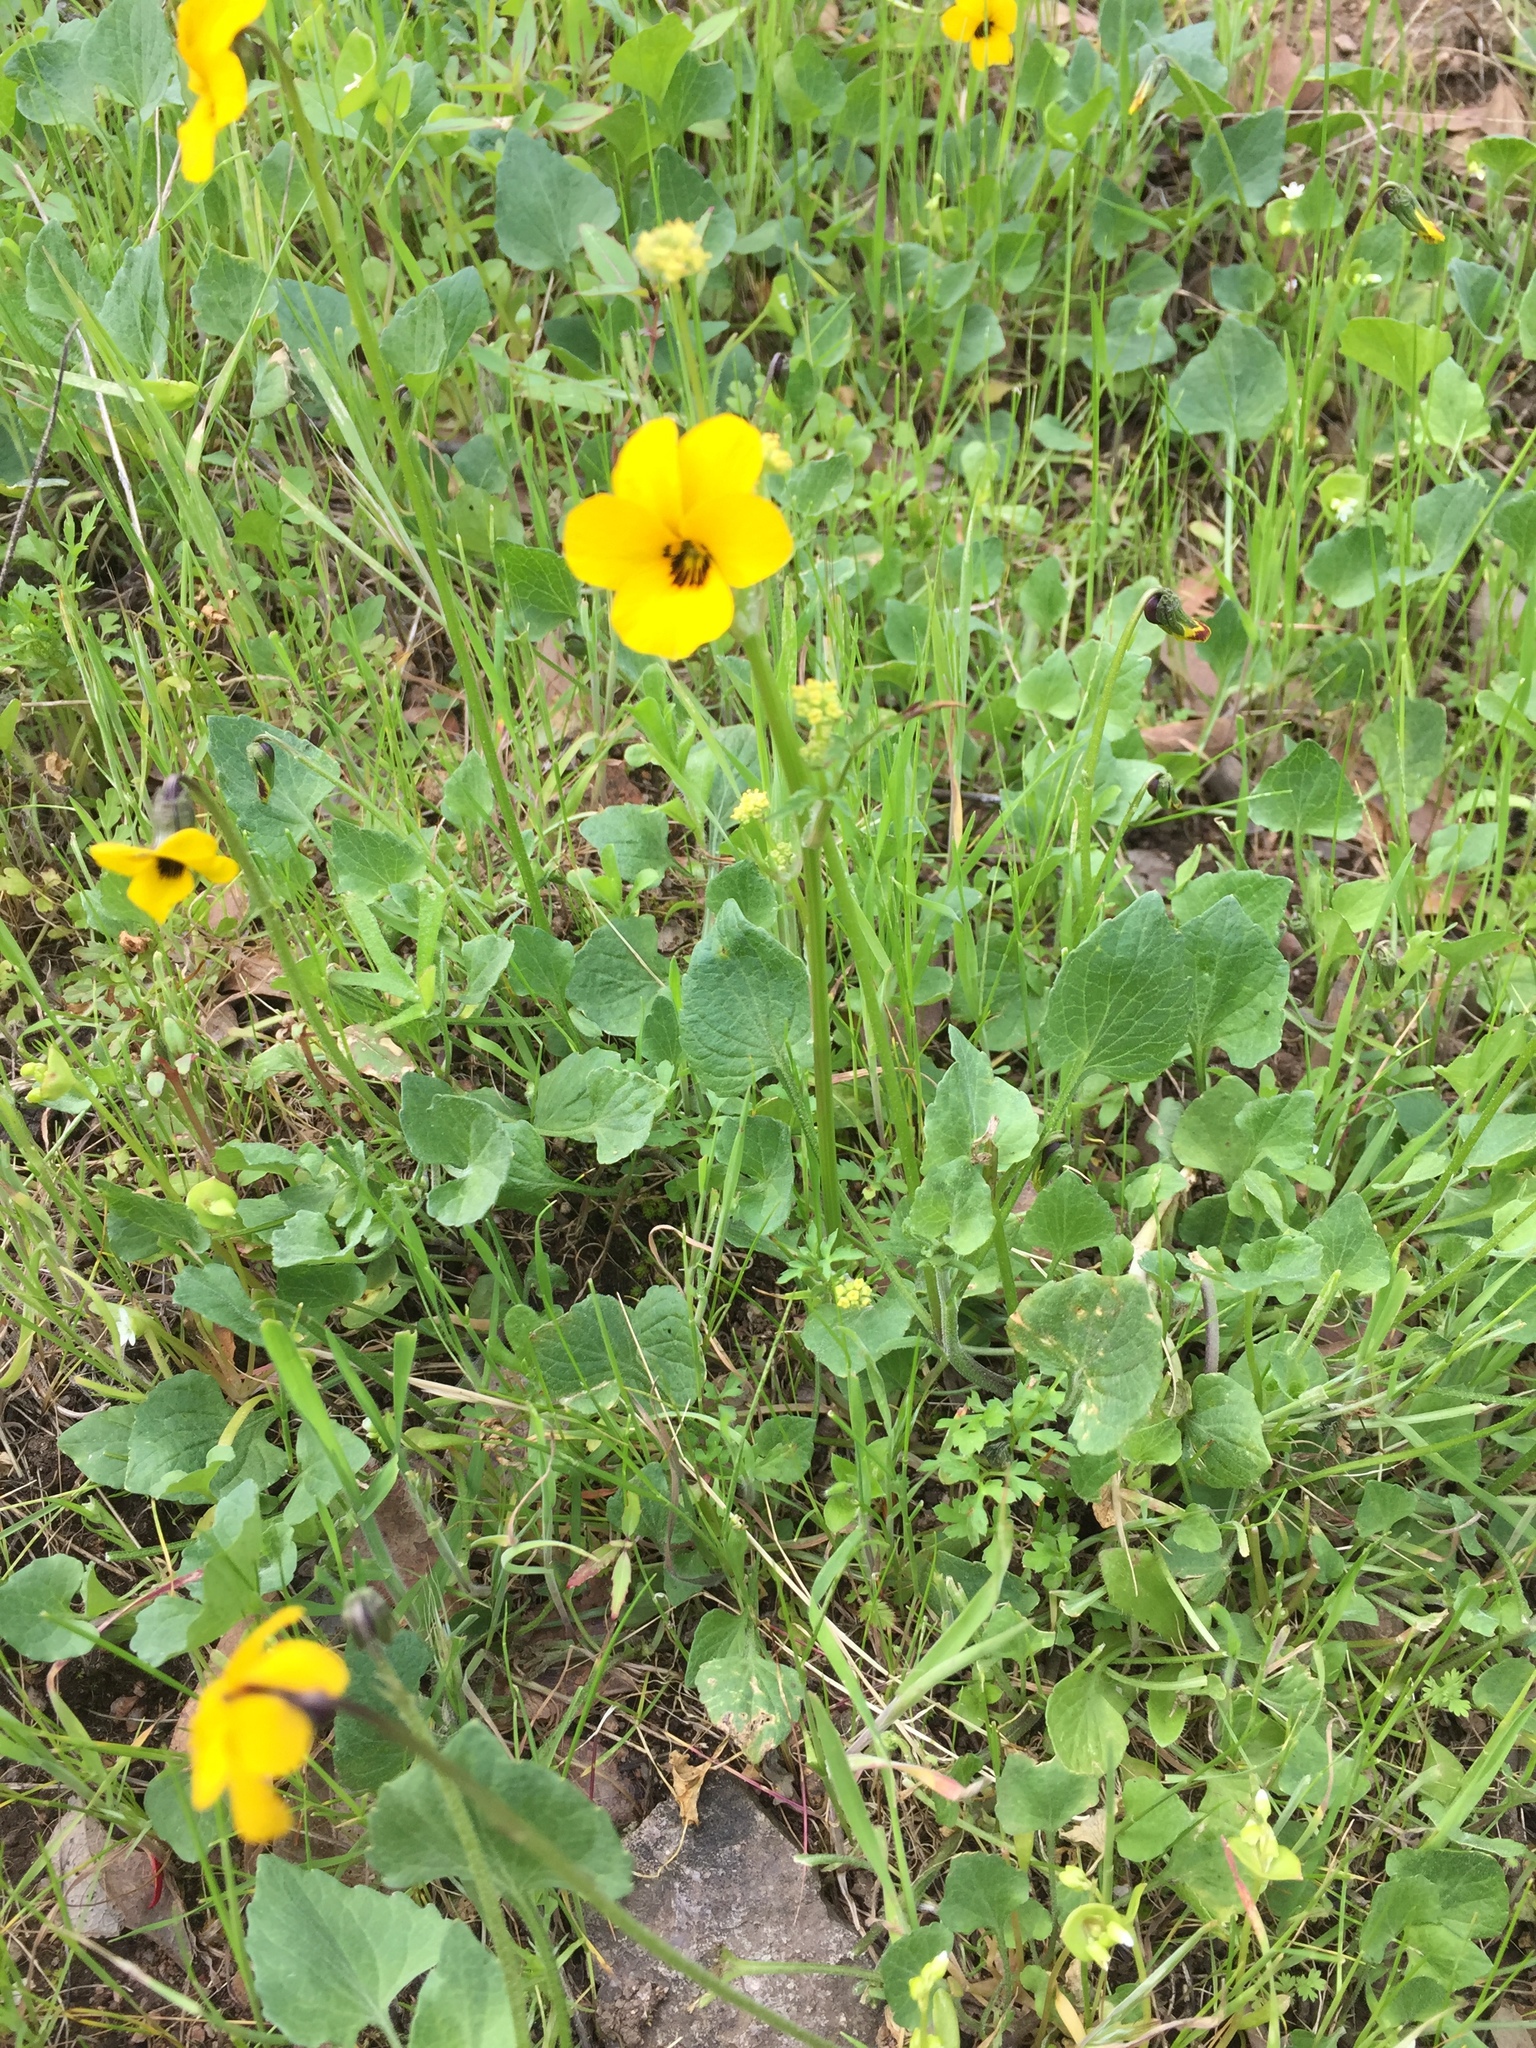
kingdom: Plantae
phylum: Tracheophyta
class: Magnoliopsida
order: Malpighiales
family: Violaceae
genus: Viola
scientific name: Viola pedunculata
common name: California golden violet
